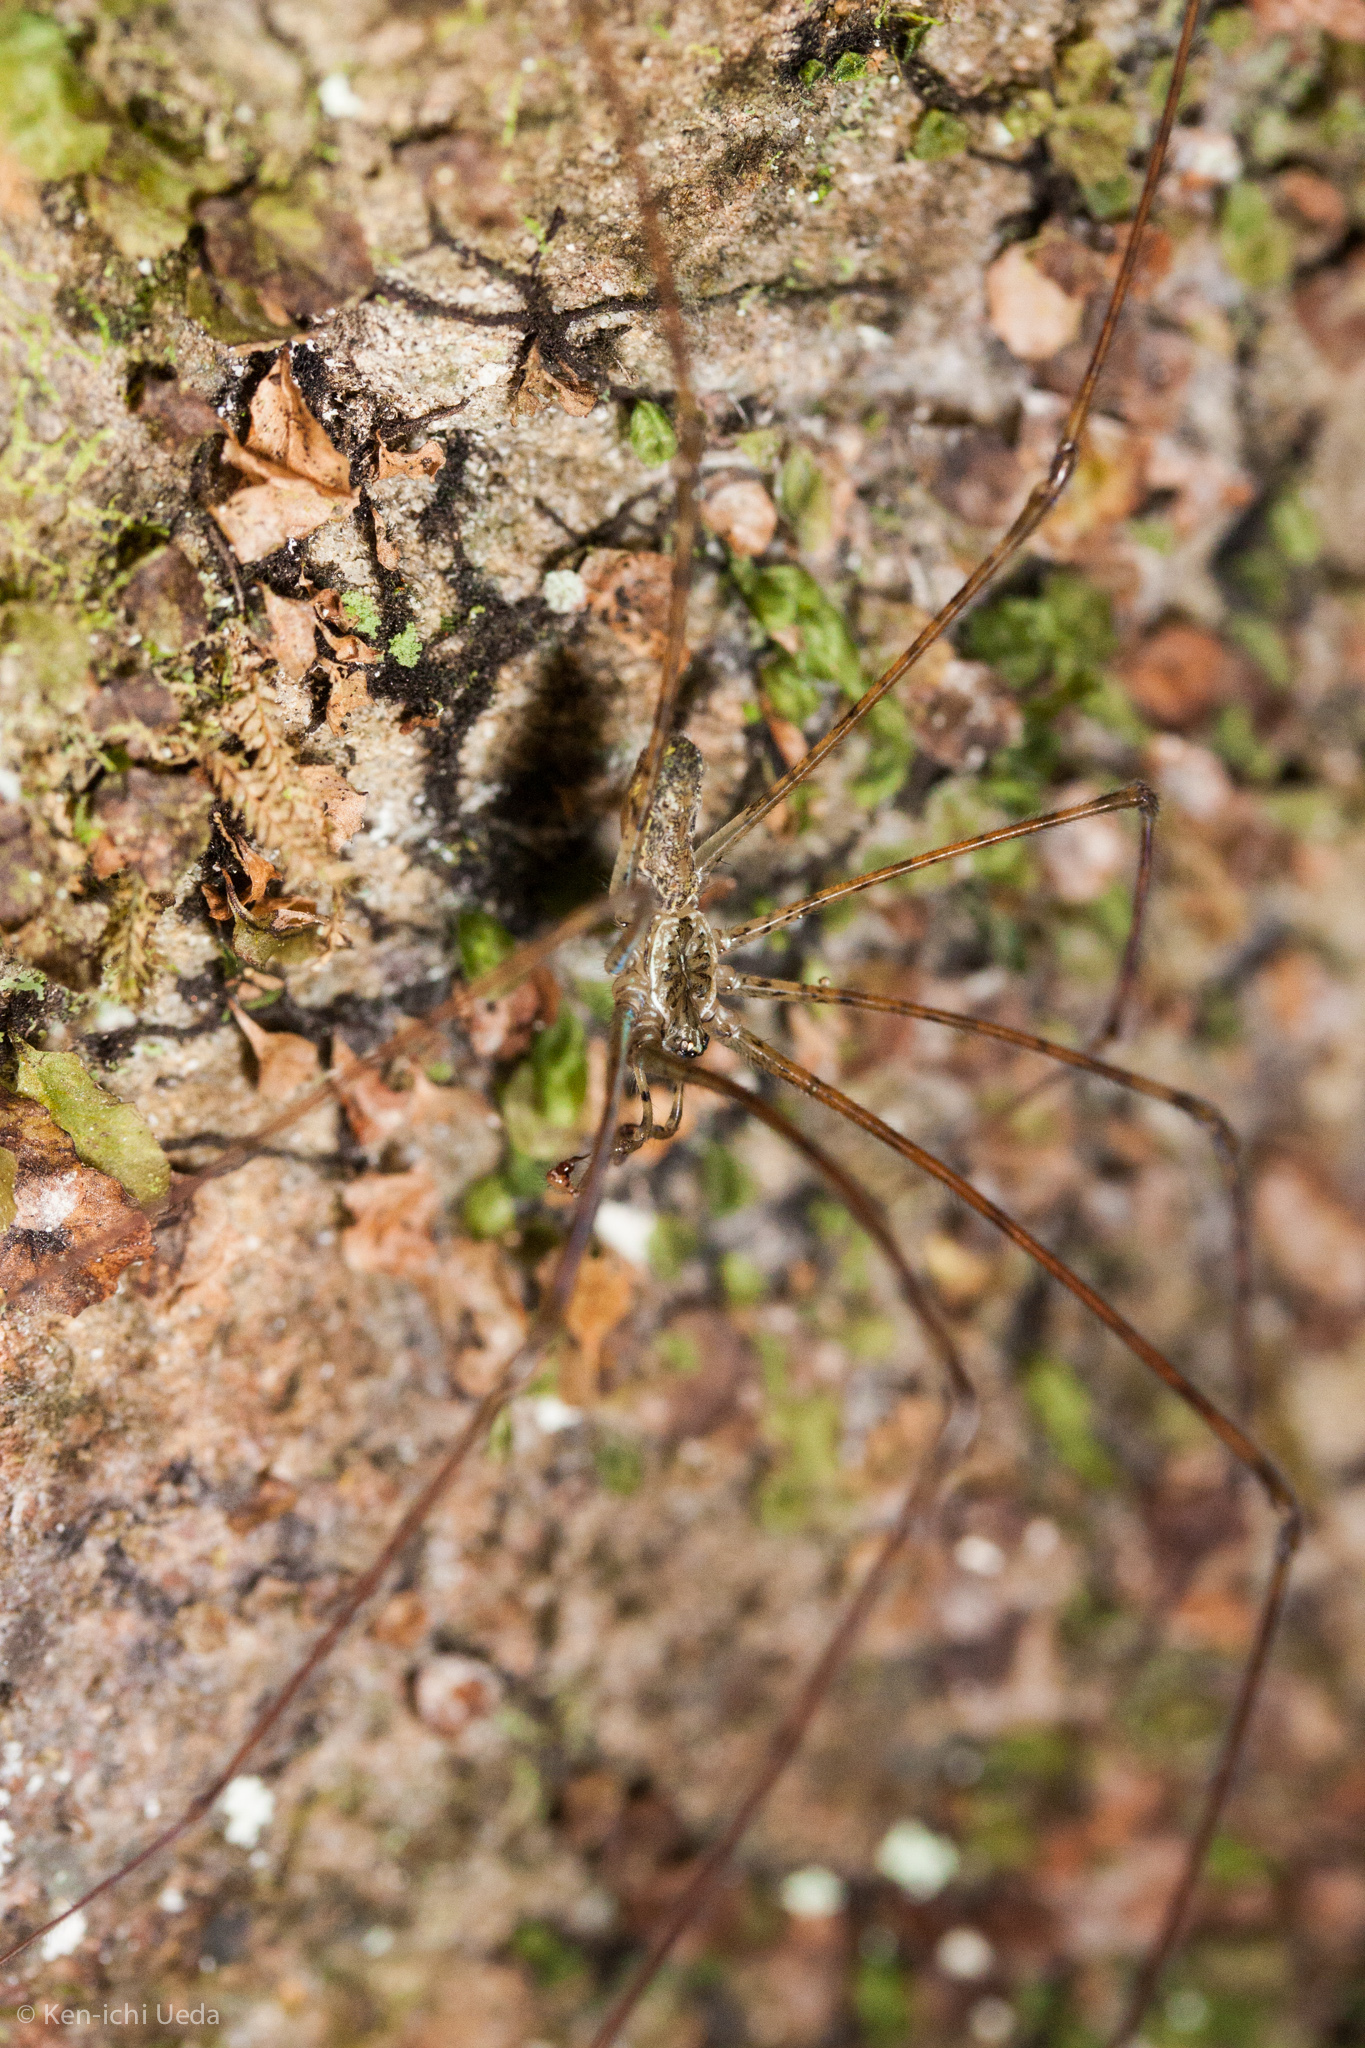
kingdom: Animalia
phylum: Arthropoda
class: Arachnida
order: Araneae
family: Hypochilidae
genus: Hypochilus
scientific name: Hypochilus pococki
